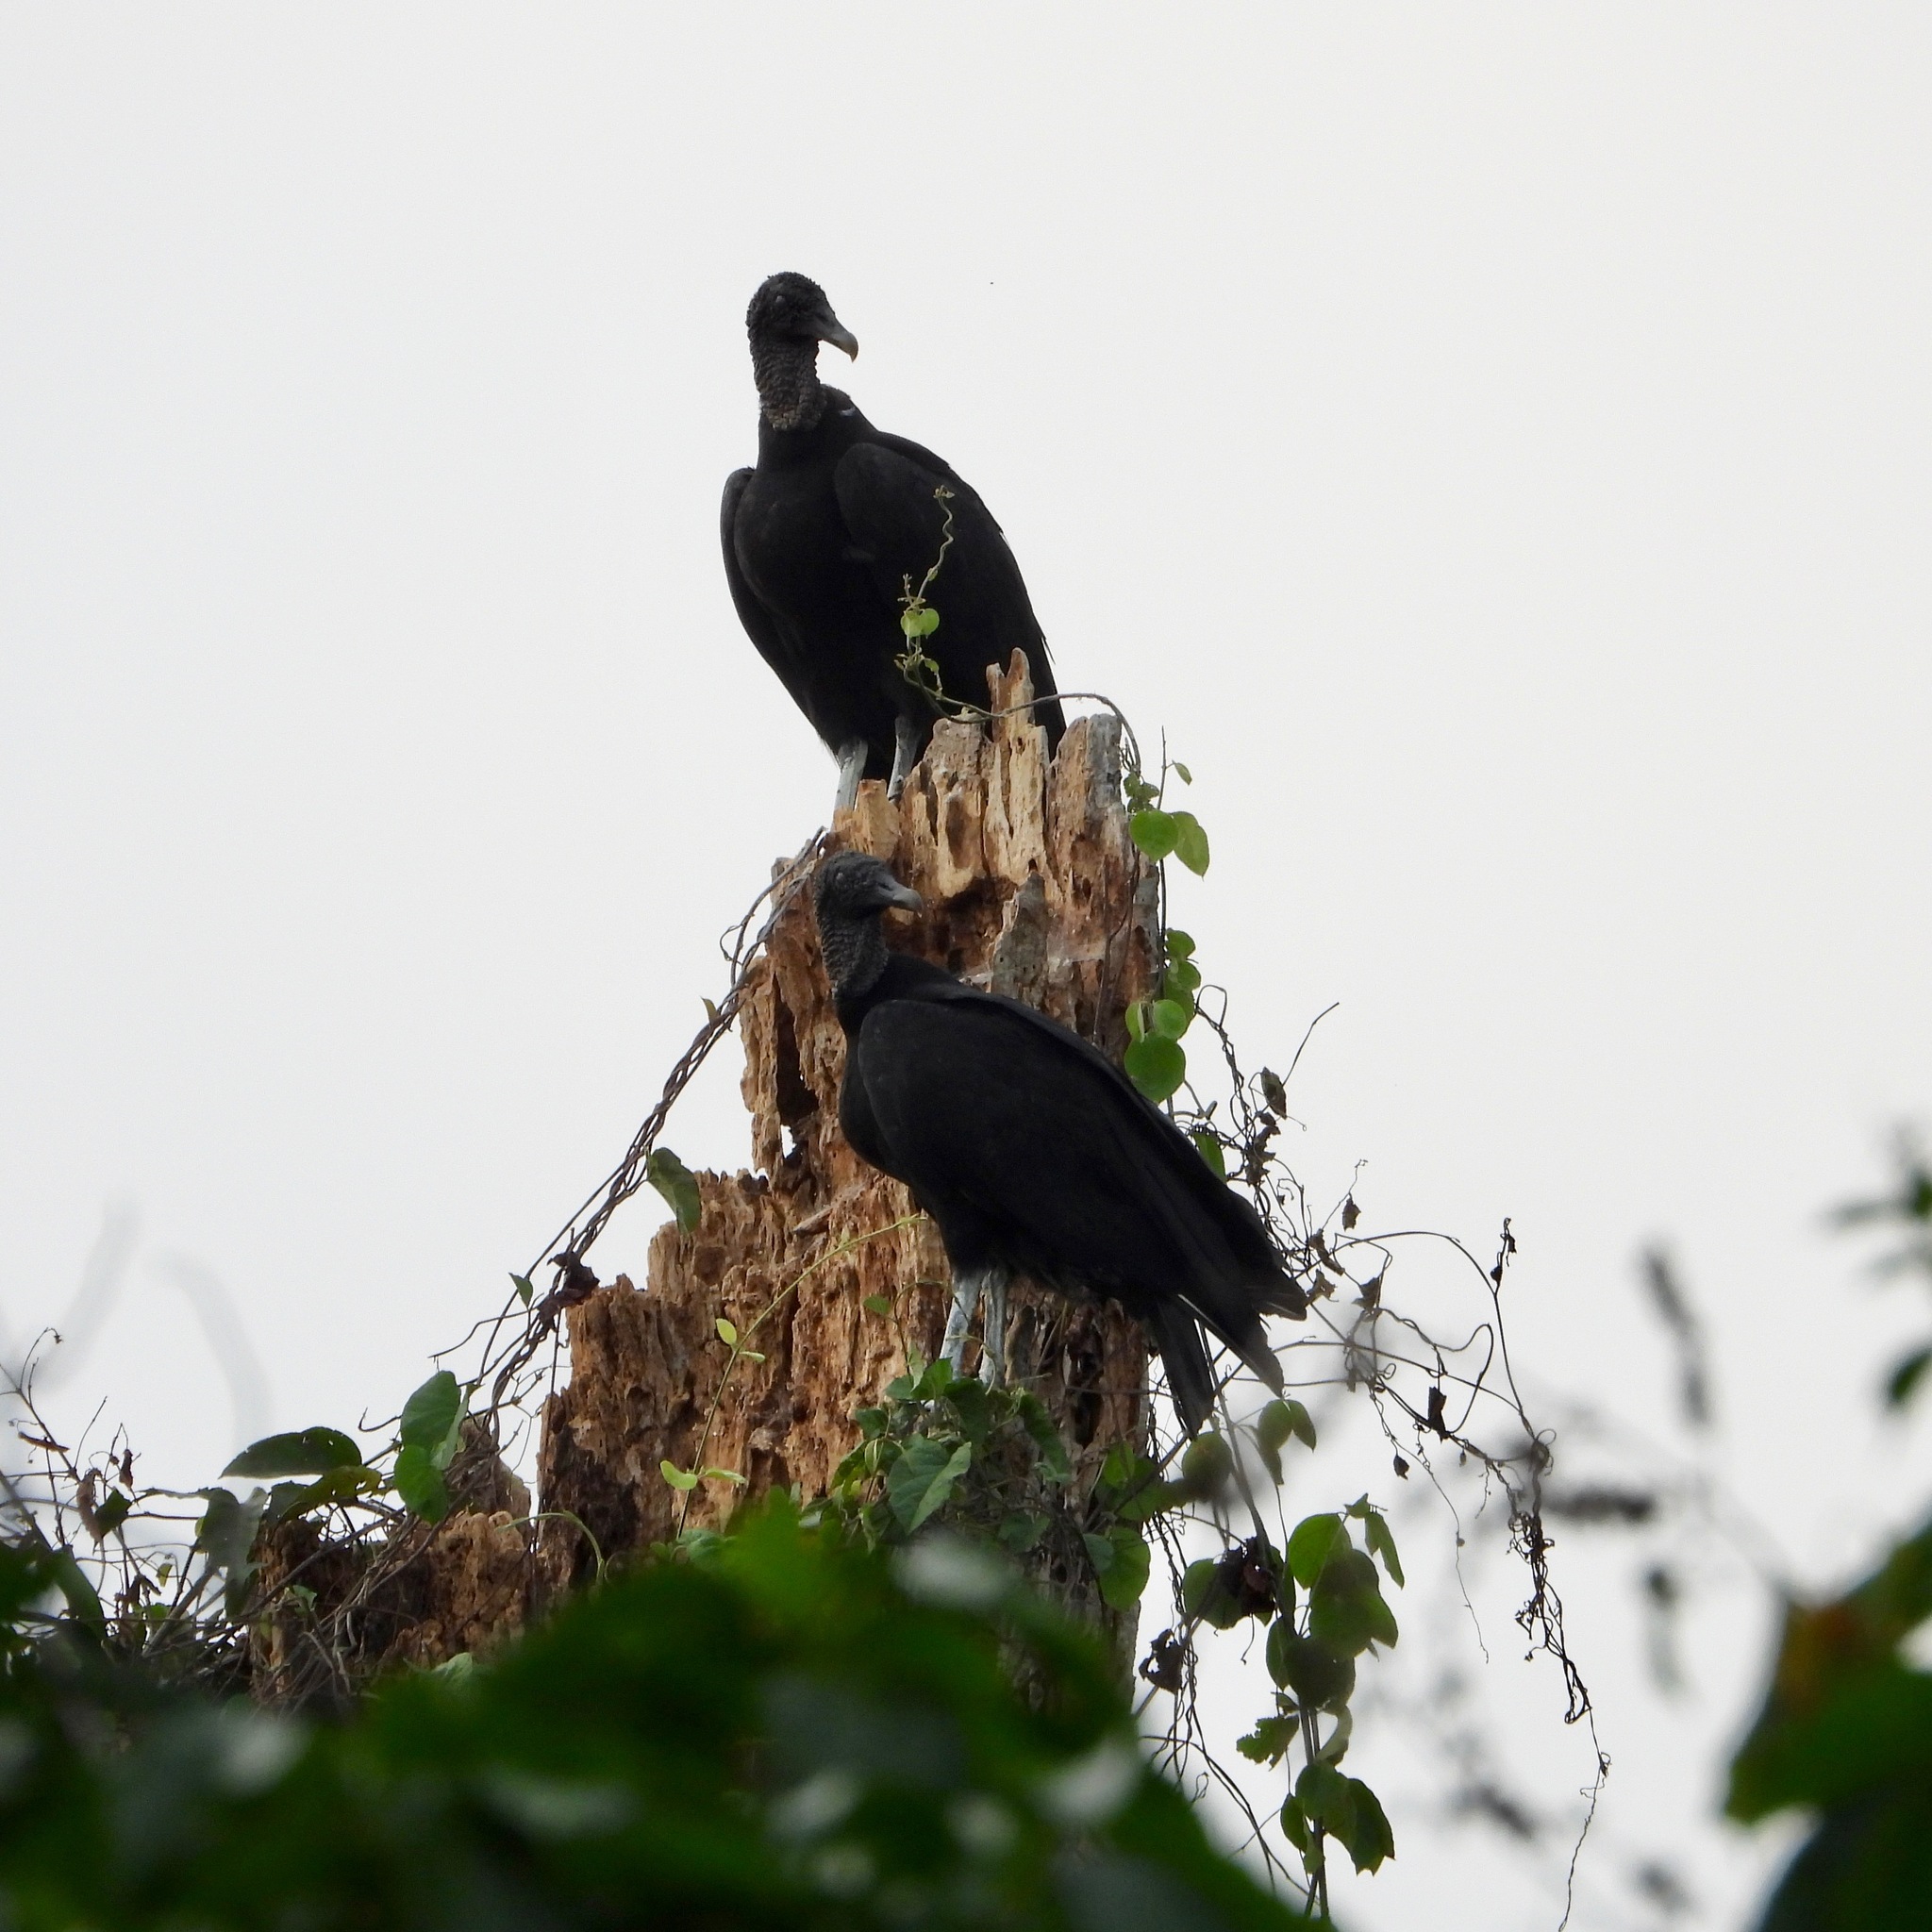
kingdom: Animalia
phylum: Chordata
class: Aves
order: Accipitriformes
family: Cathartidae
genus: Coragyps
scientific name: Coragyps atratus
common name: Black vulture
